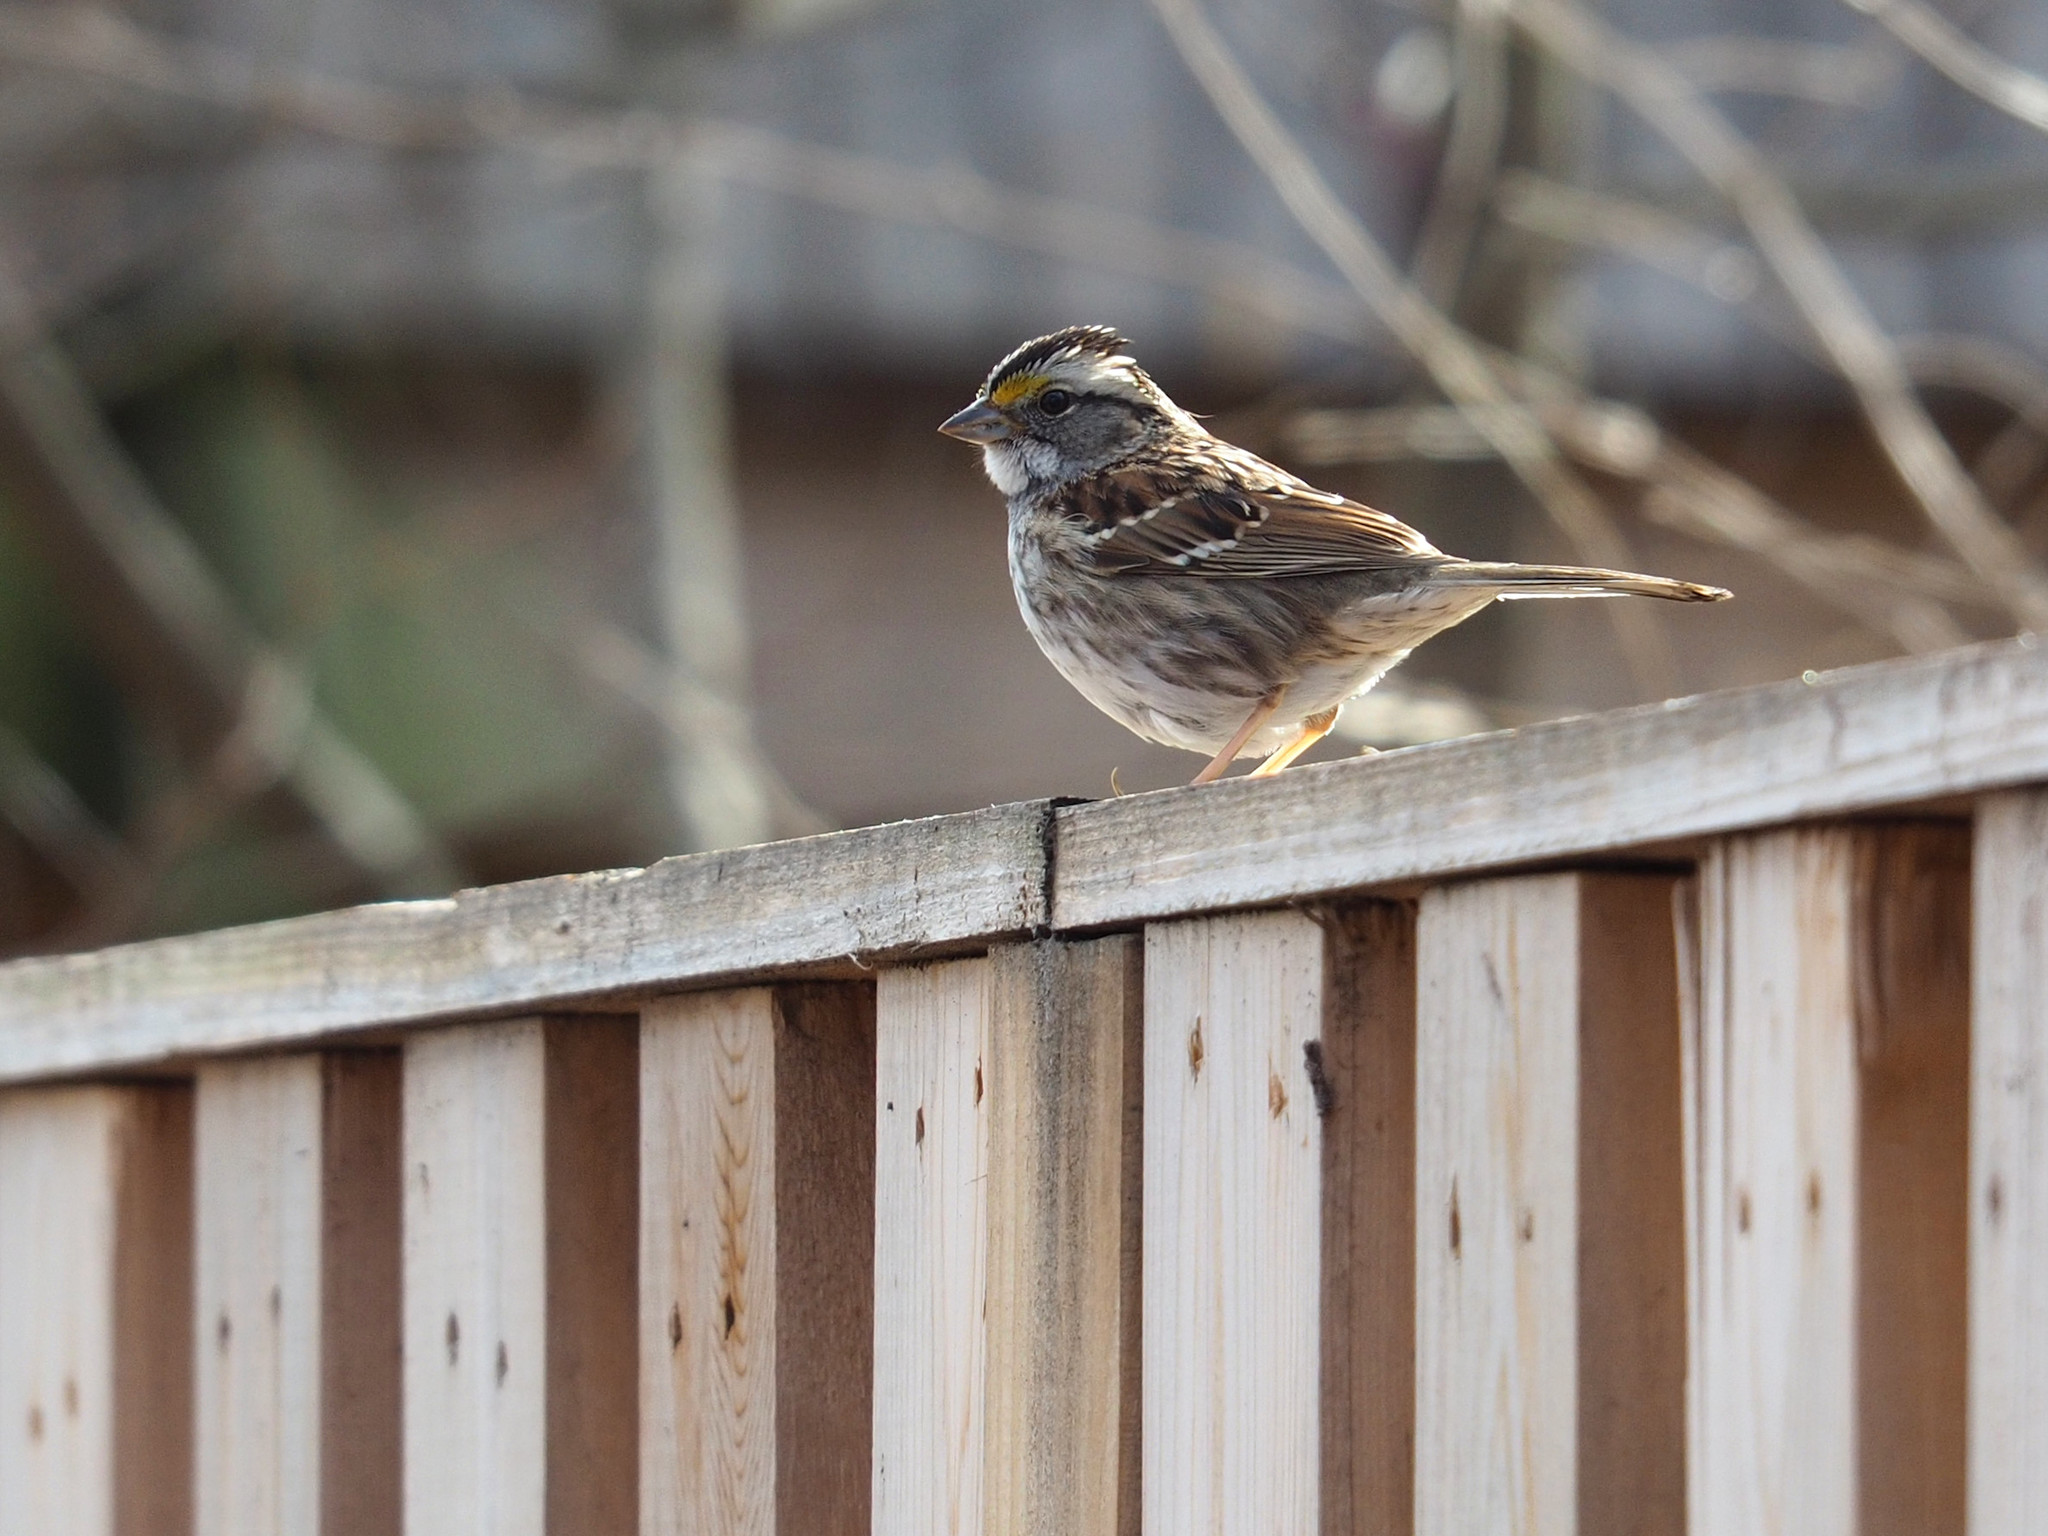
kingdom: Animalia
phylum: Chordata
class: Aves
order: Passeriformes
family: Passerellidae
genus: Zonotrichia
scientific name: Zonotrichia albicollis
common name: White-throated sparrow
